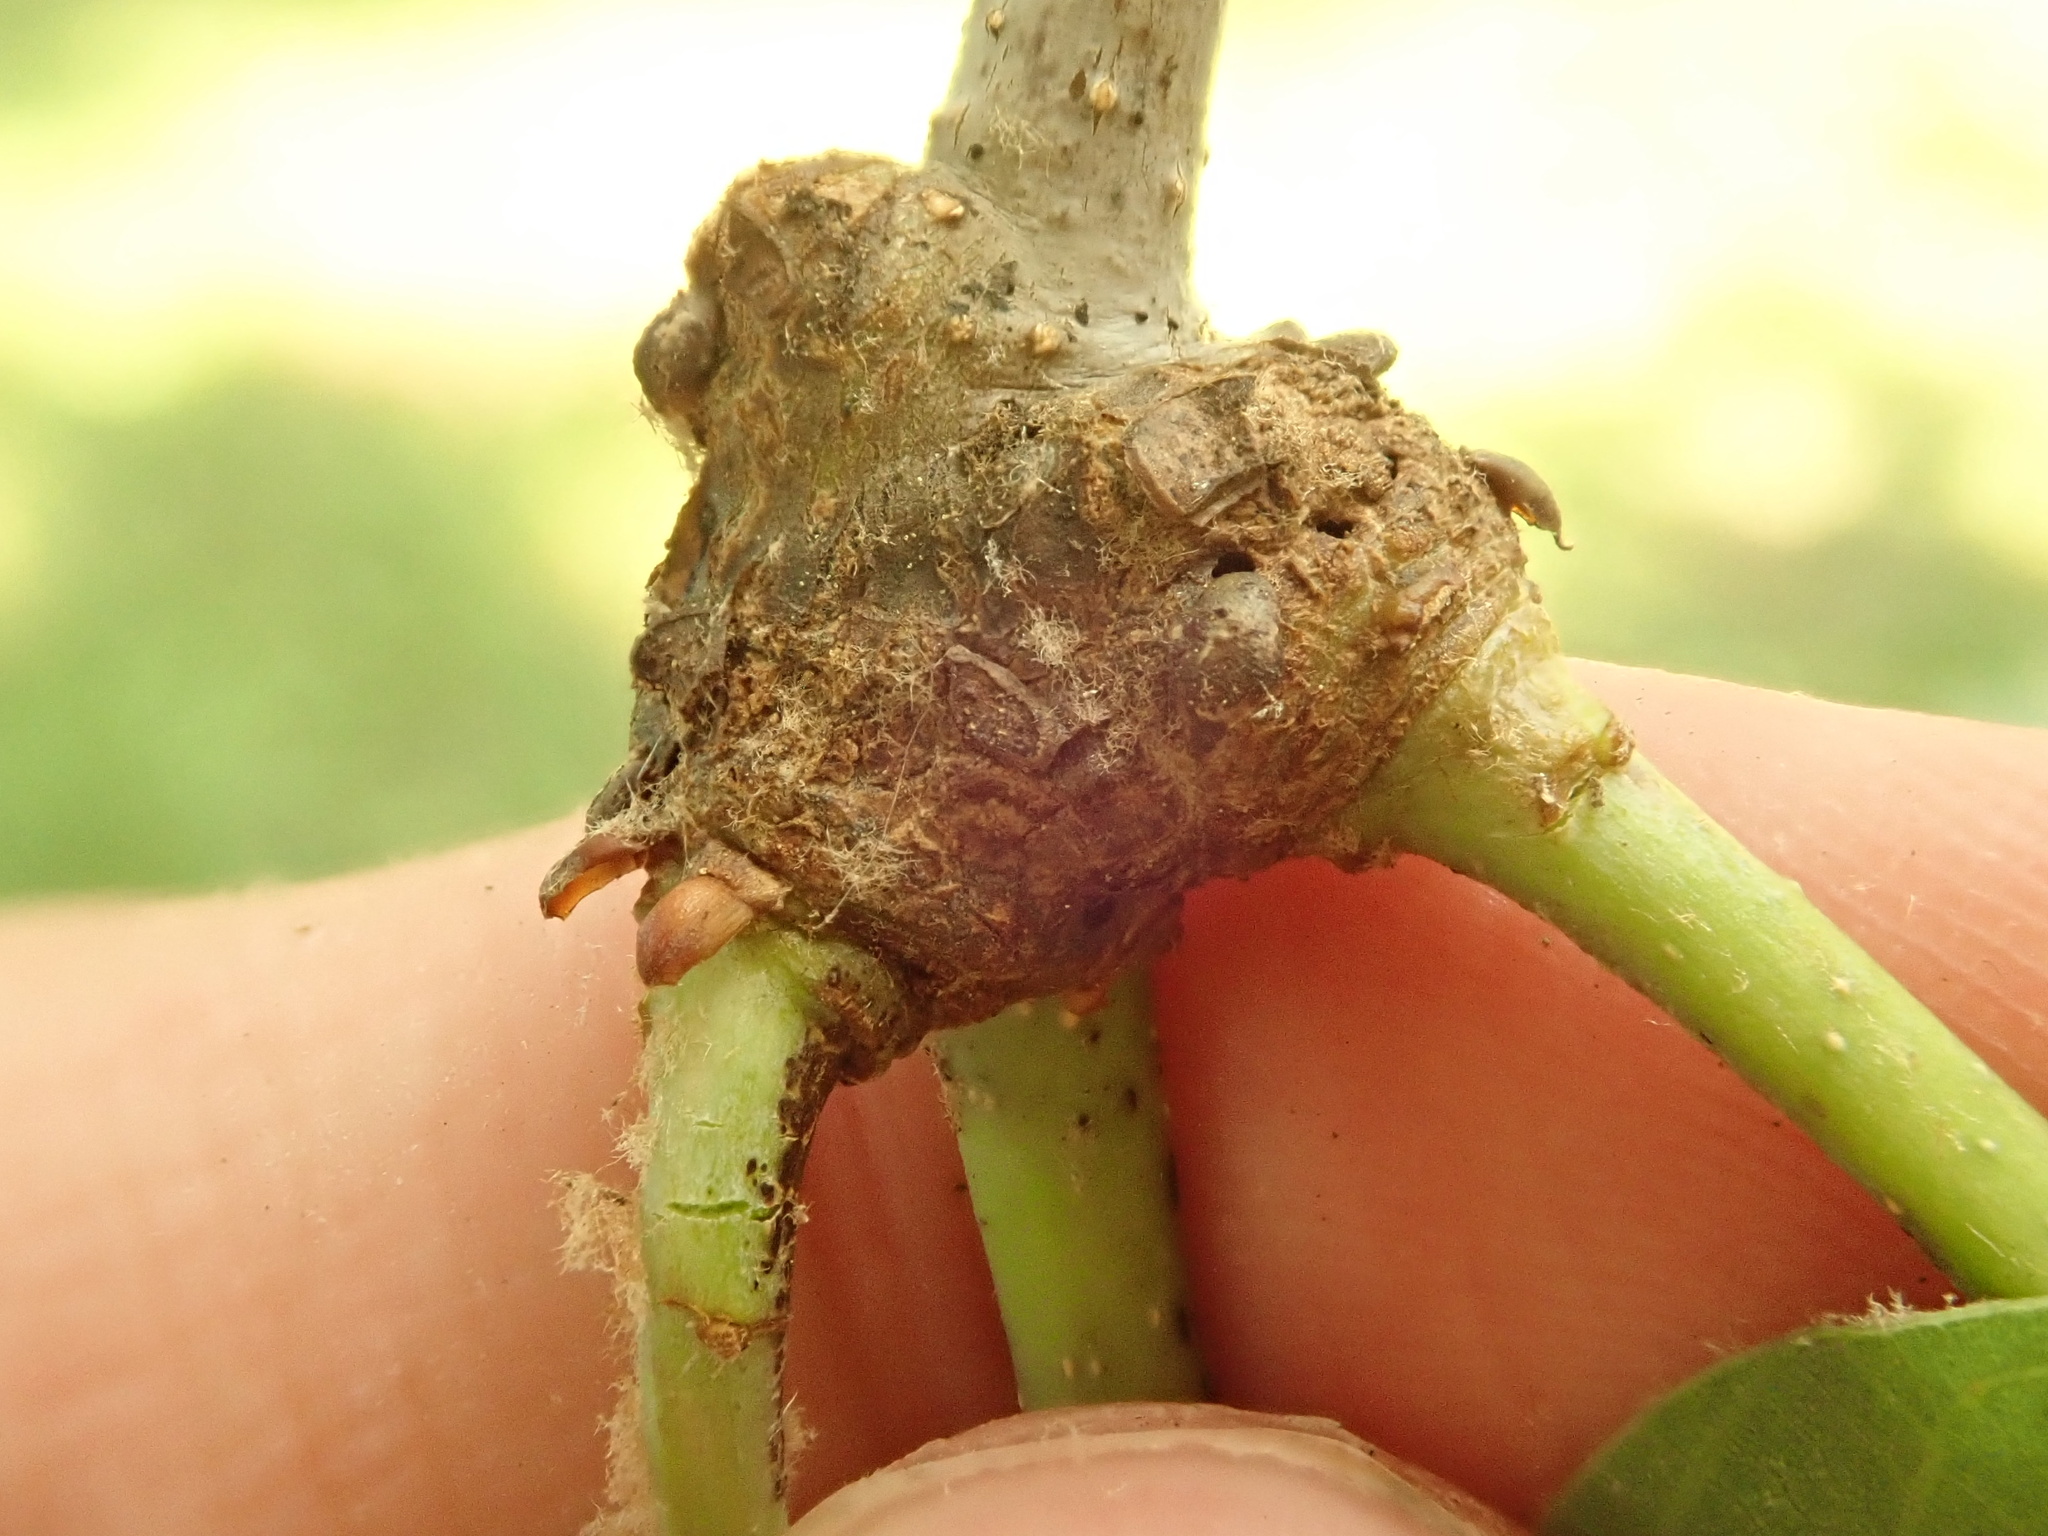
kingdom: Animalia
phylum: Arthropoda
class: Insecta
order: Hymenoptera
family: Cynipidae
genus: Loxaulus
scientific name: Loxaulus
